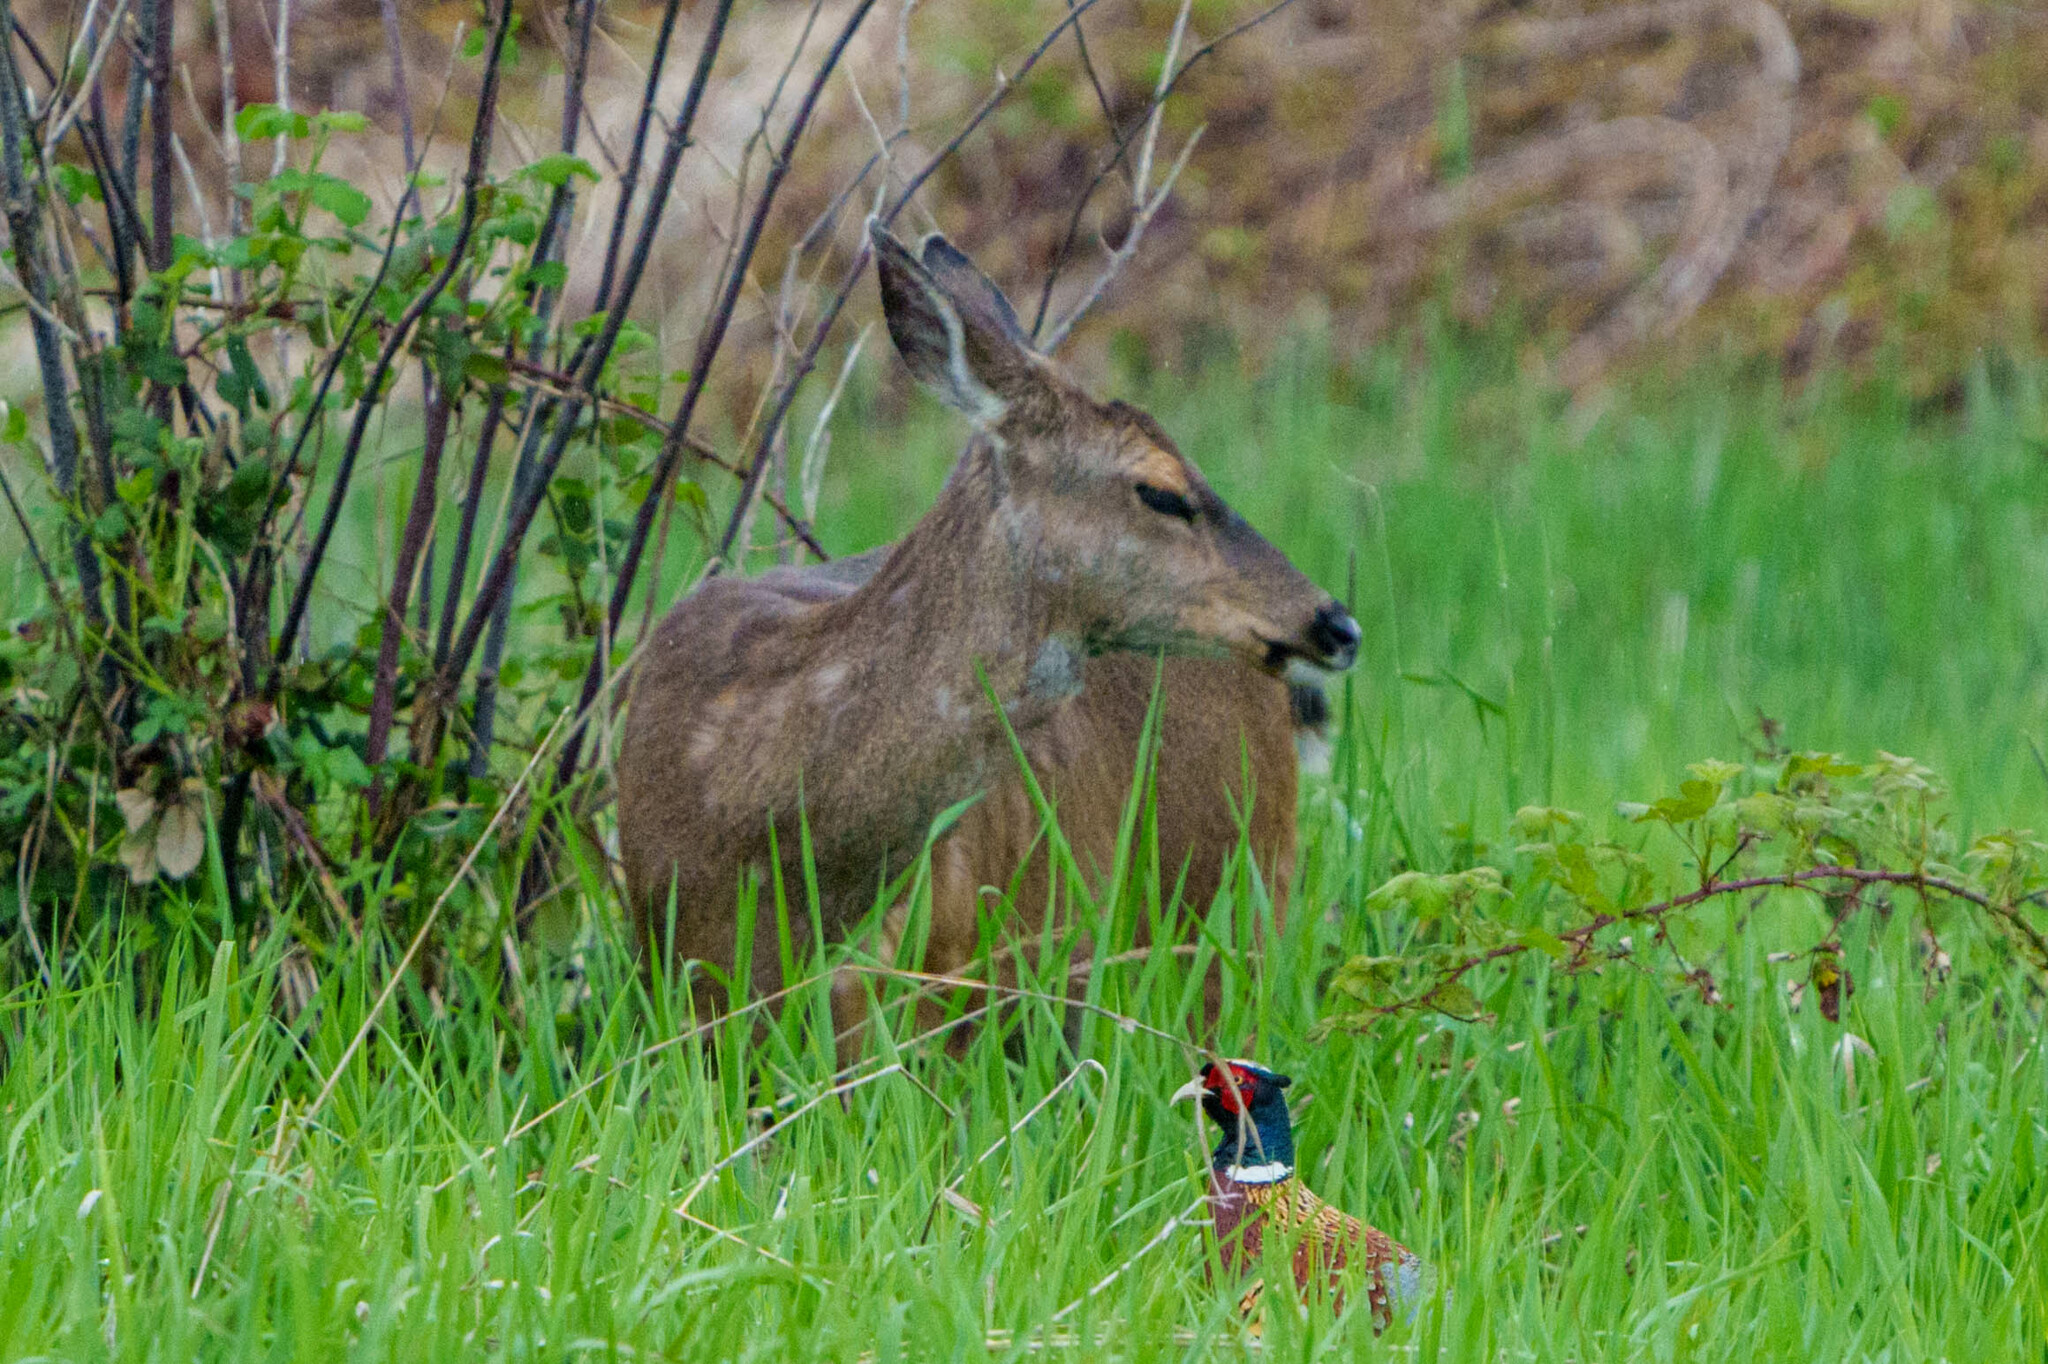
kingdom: Animalia
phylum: Chordata
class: Mammalia
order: Artiodactyla
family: Cervidae
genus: Odocoileus
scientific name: Odocoileus hemionus
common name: Mule deer
